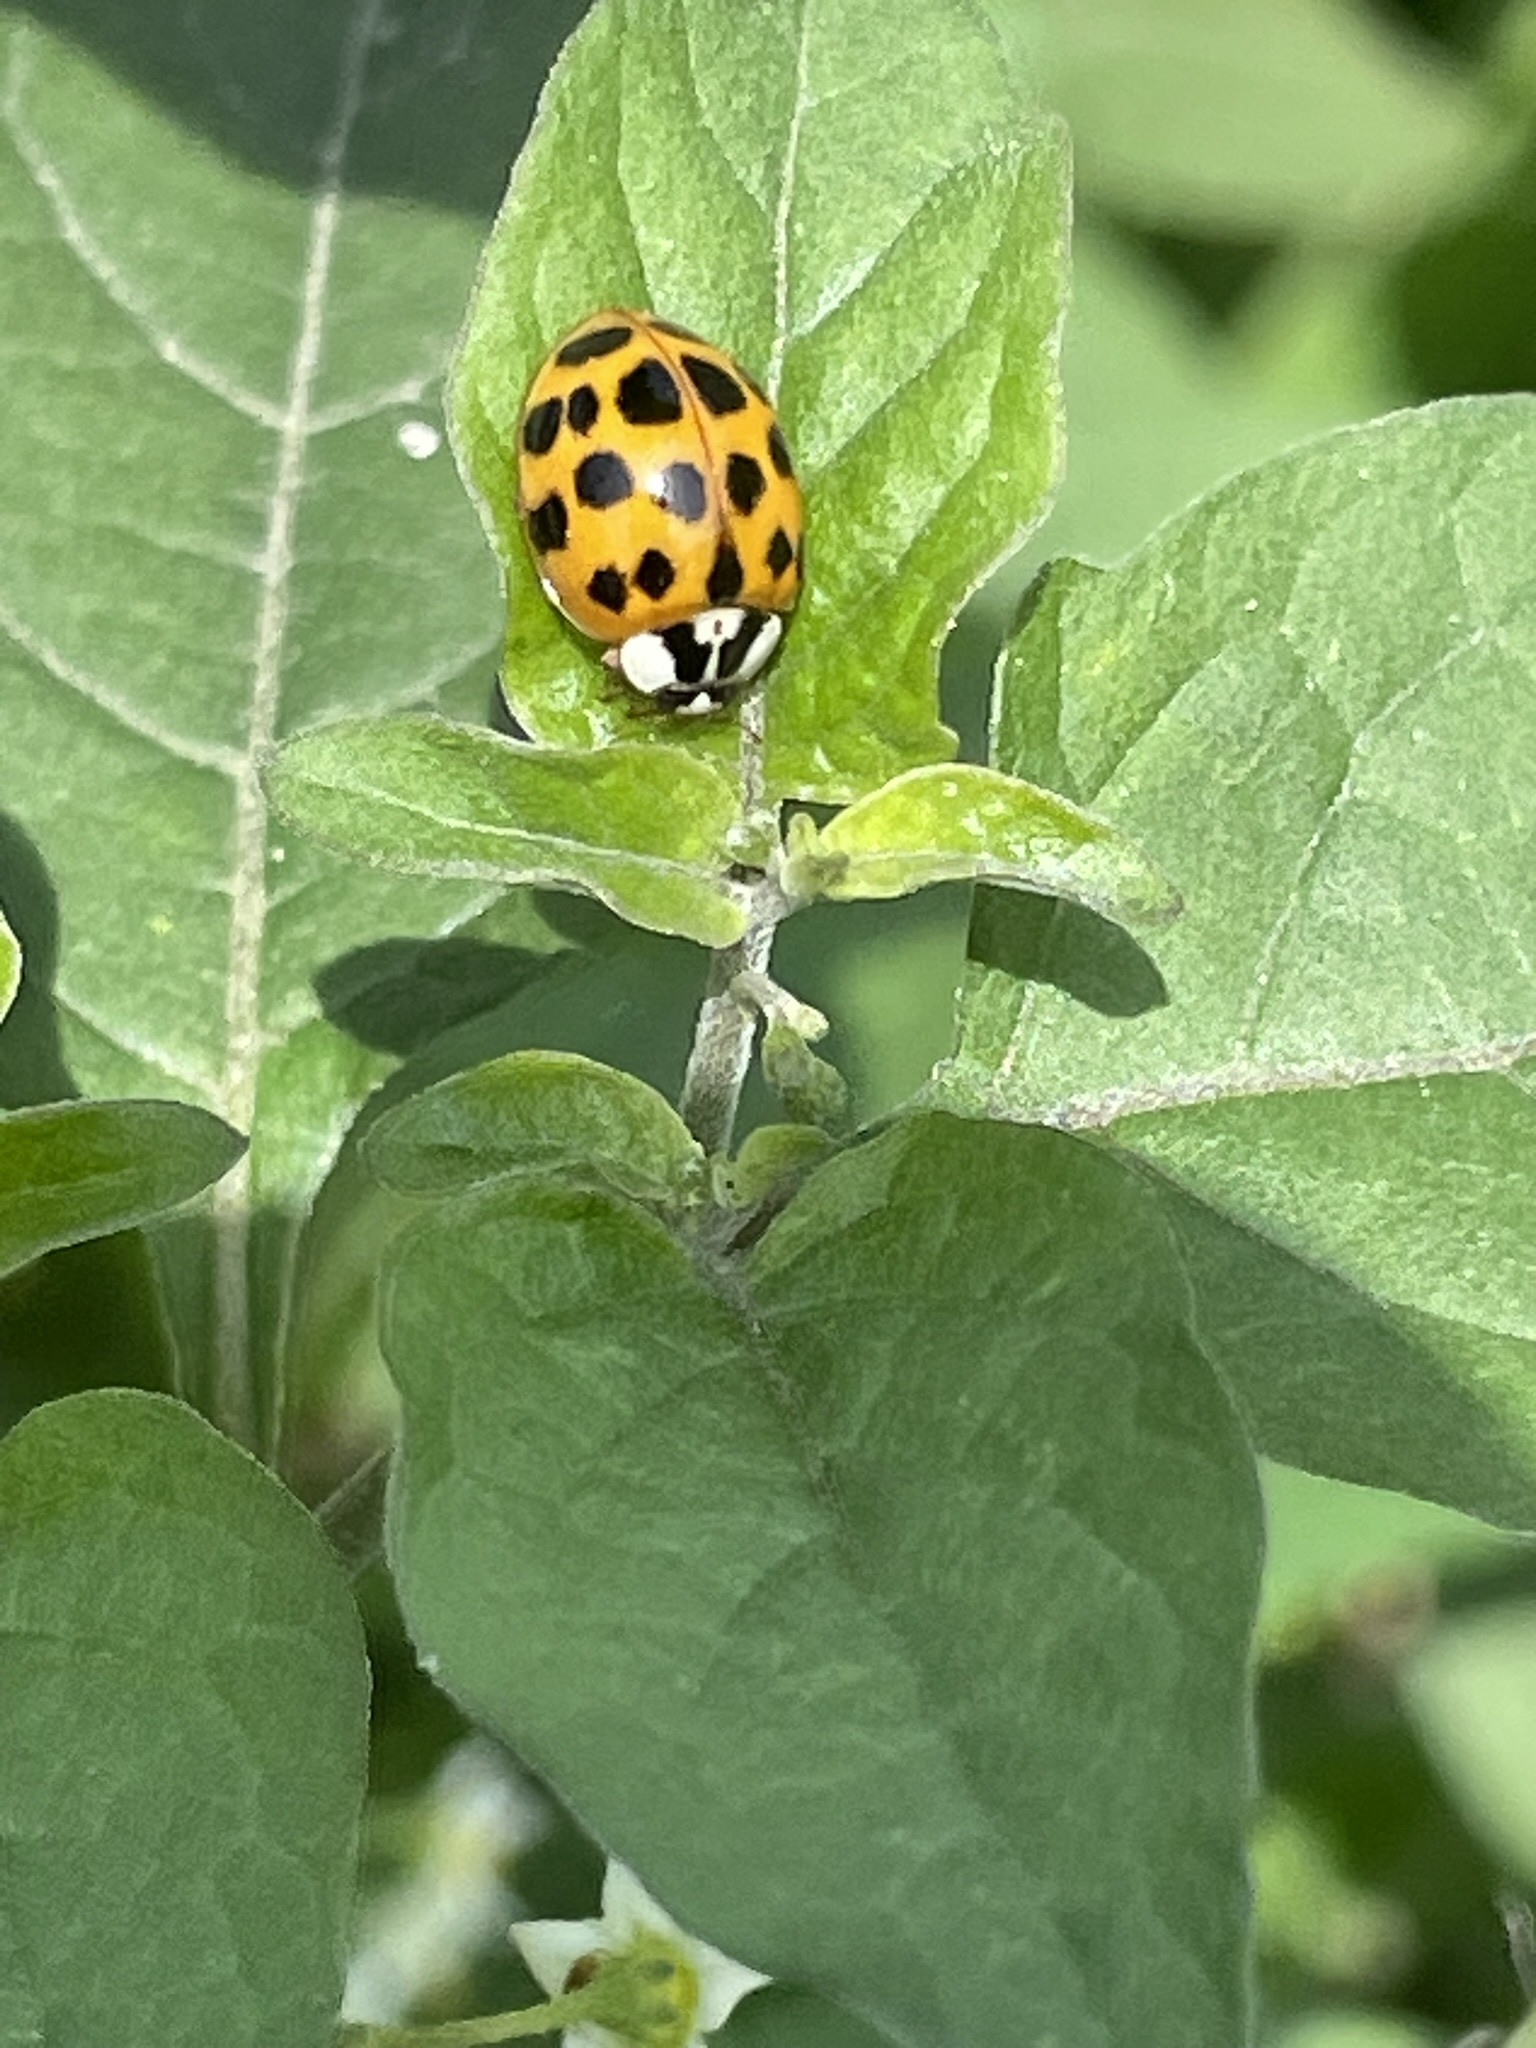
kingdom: Animalia
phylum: Arthropoda
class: Insecta
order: Coleoptera
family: Coccinellidae
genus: Harmonia
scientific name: Harmonia axyridis
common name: Harlequin ladybird
